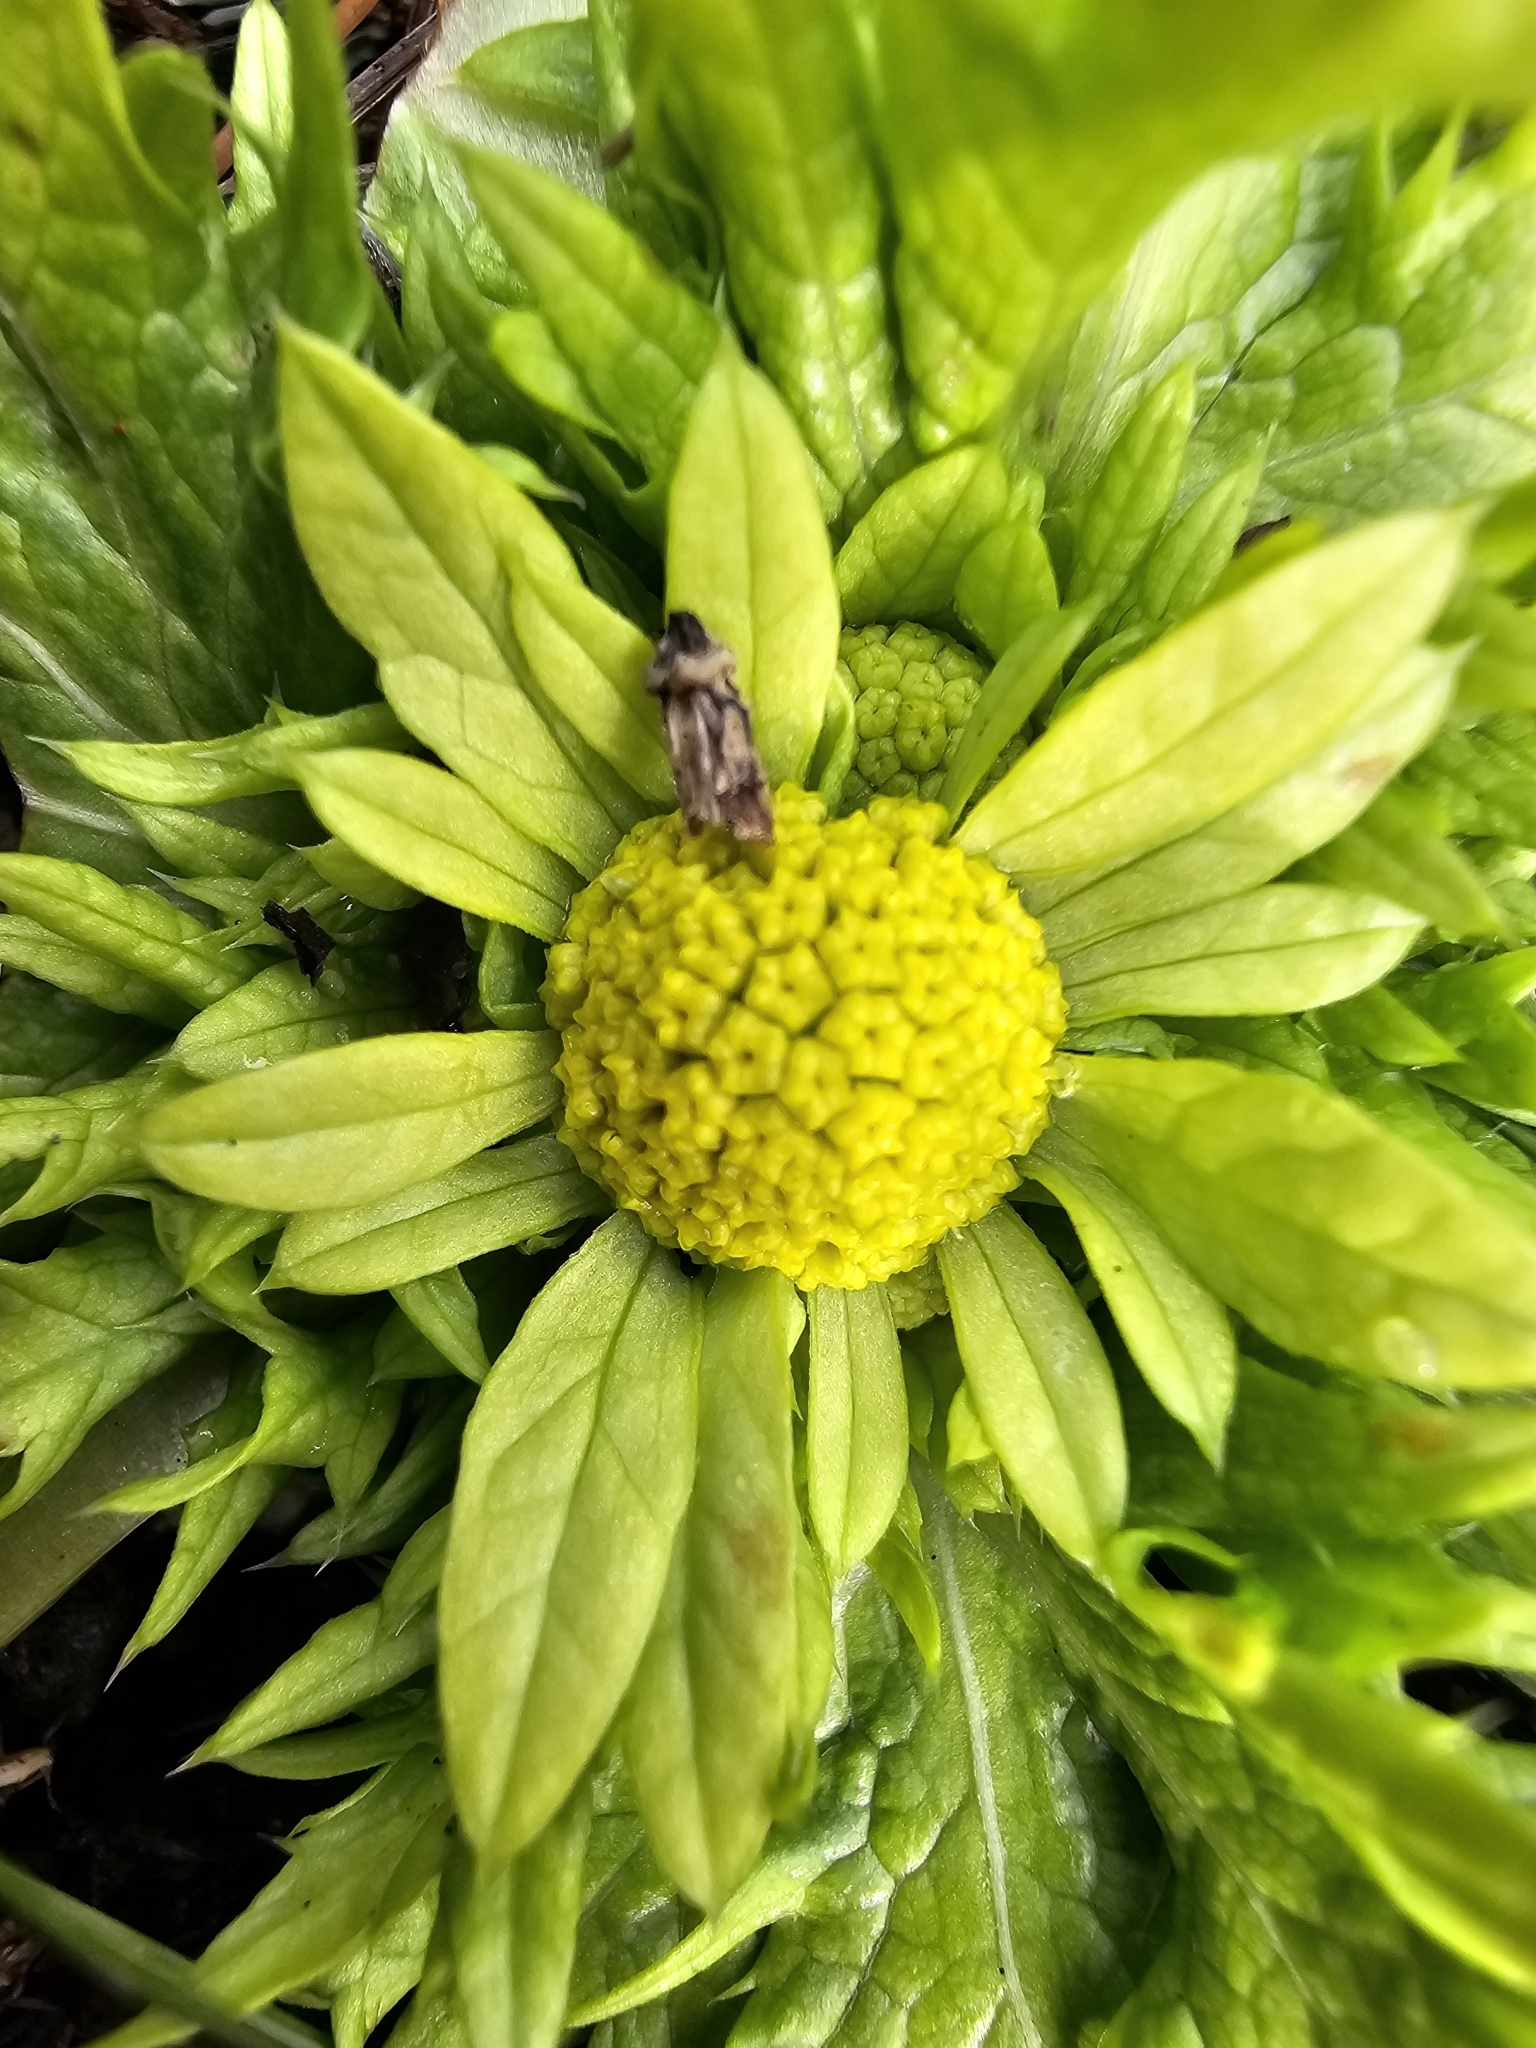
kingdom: Plantae
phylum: Tracheophyta
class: Magnoliopsida
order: Apiales
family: Apiaceae
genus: Sanicula
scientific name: Sanicula arctopoides
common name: Footsteps-of-spring
